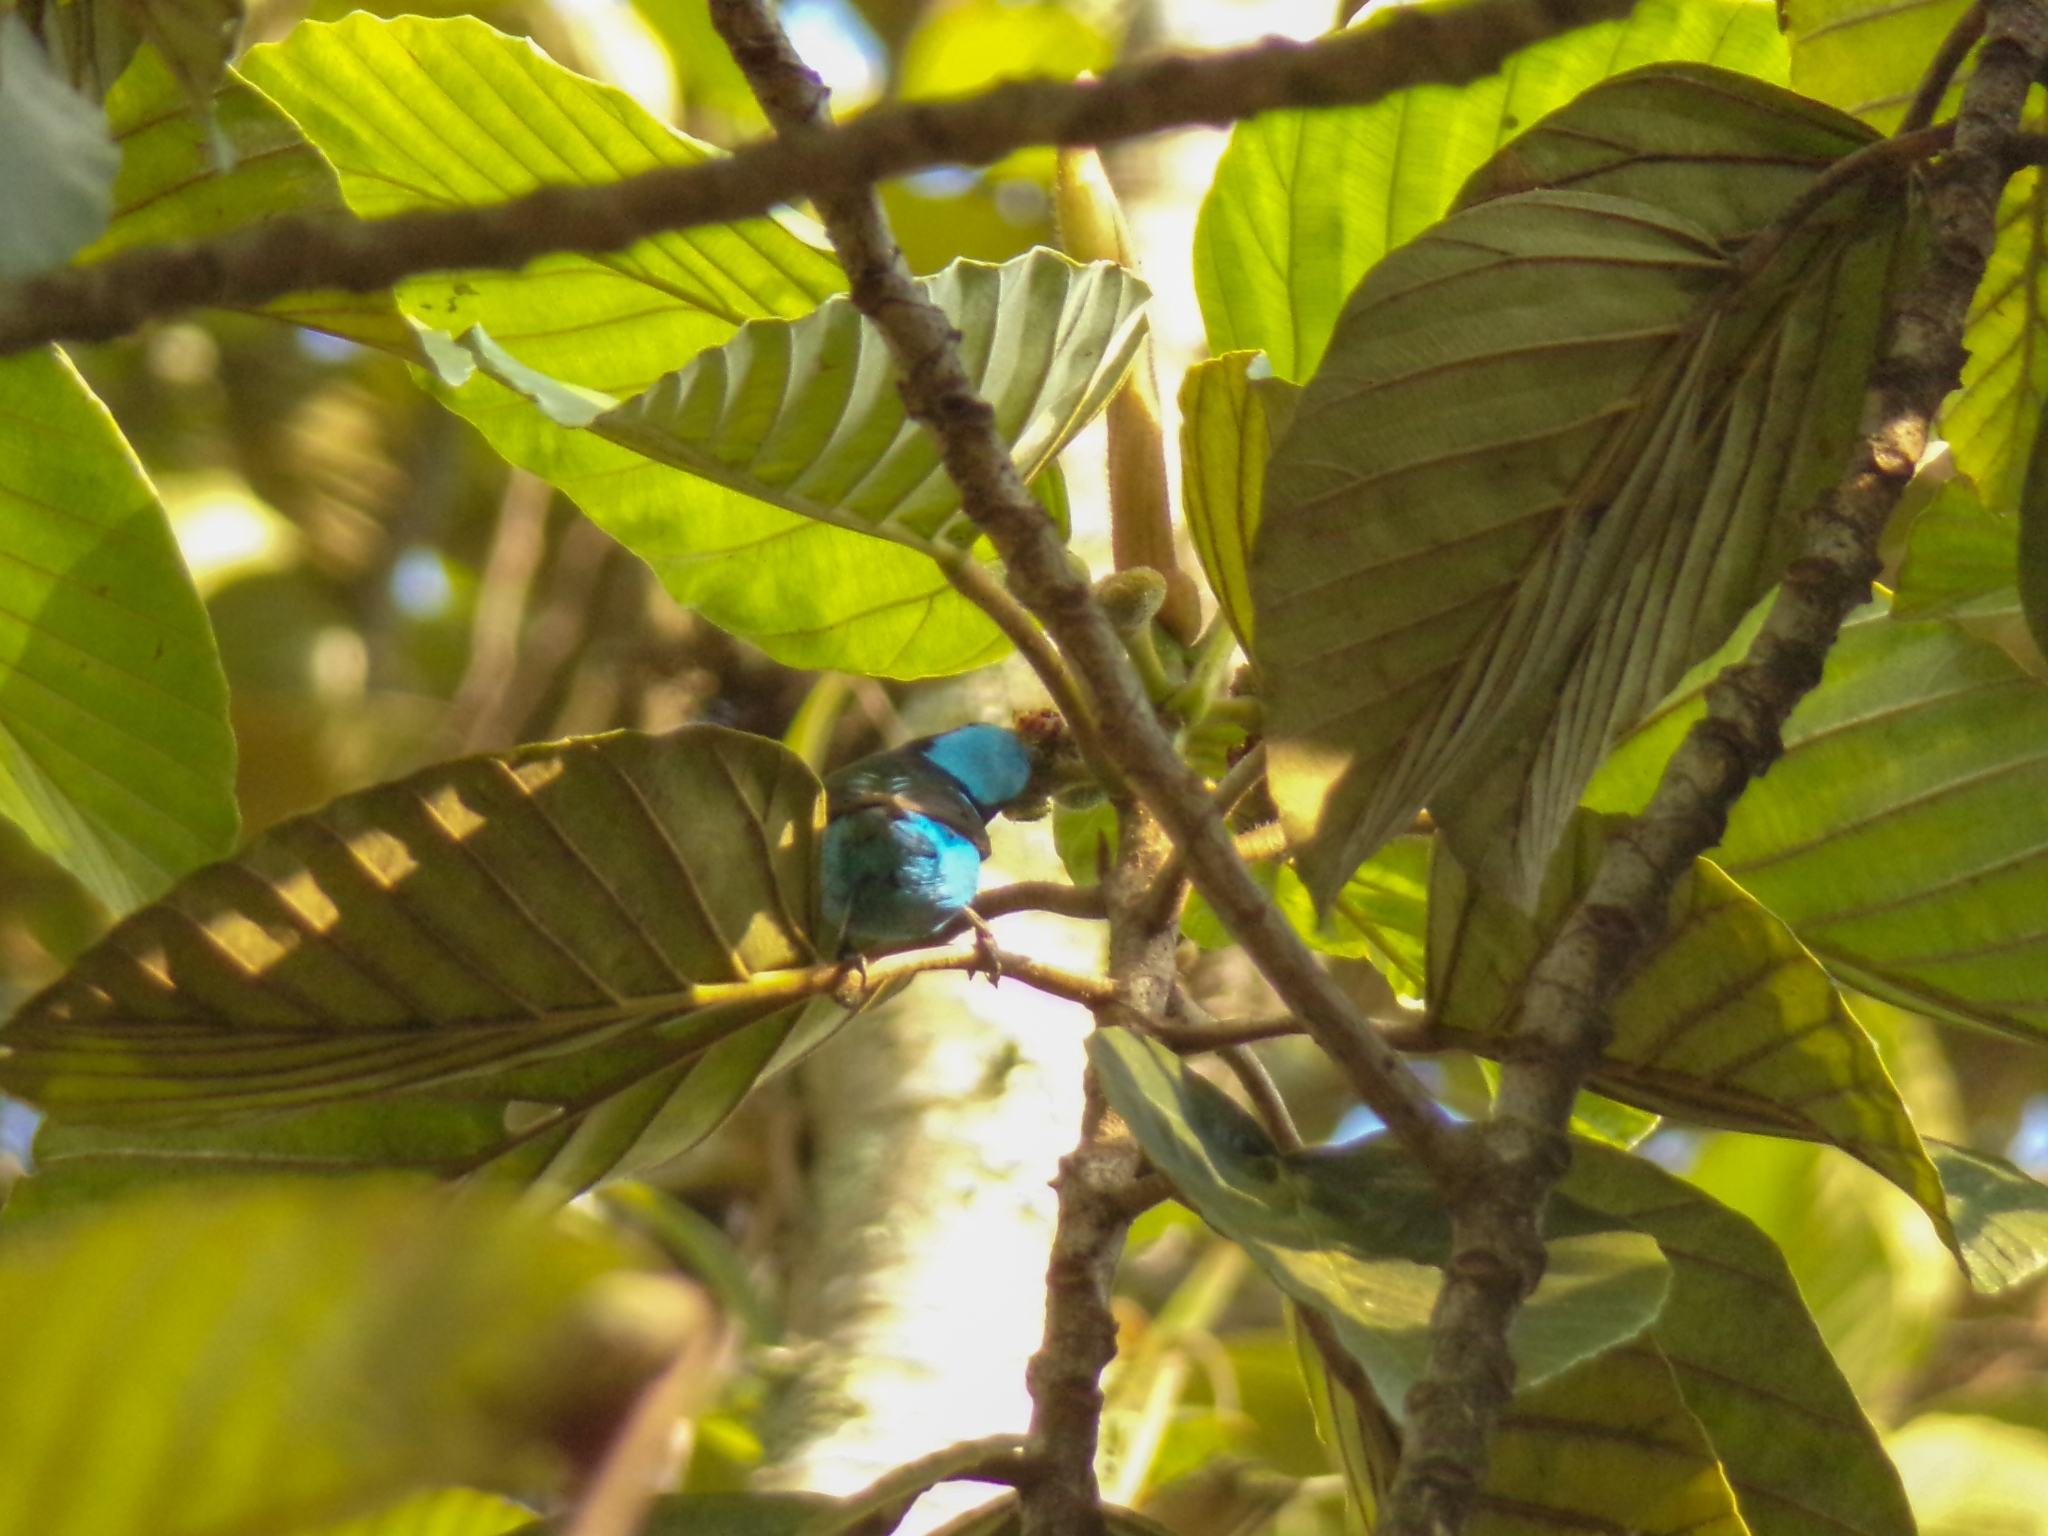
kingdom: Animalia
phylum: Chordata
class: Aves
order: Passeriformes
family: Thraupidae
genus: Dacnis
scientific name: Dacnis hartlaubi
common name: Turquoise dacnis
